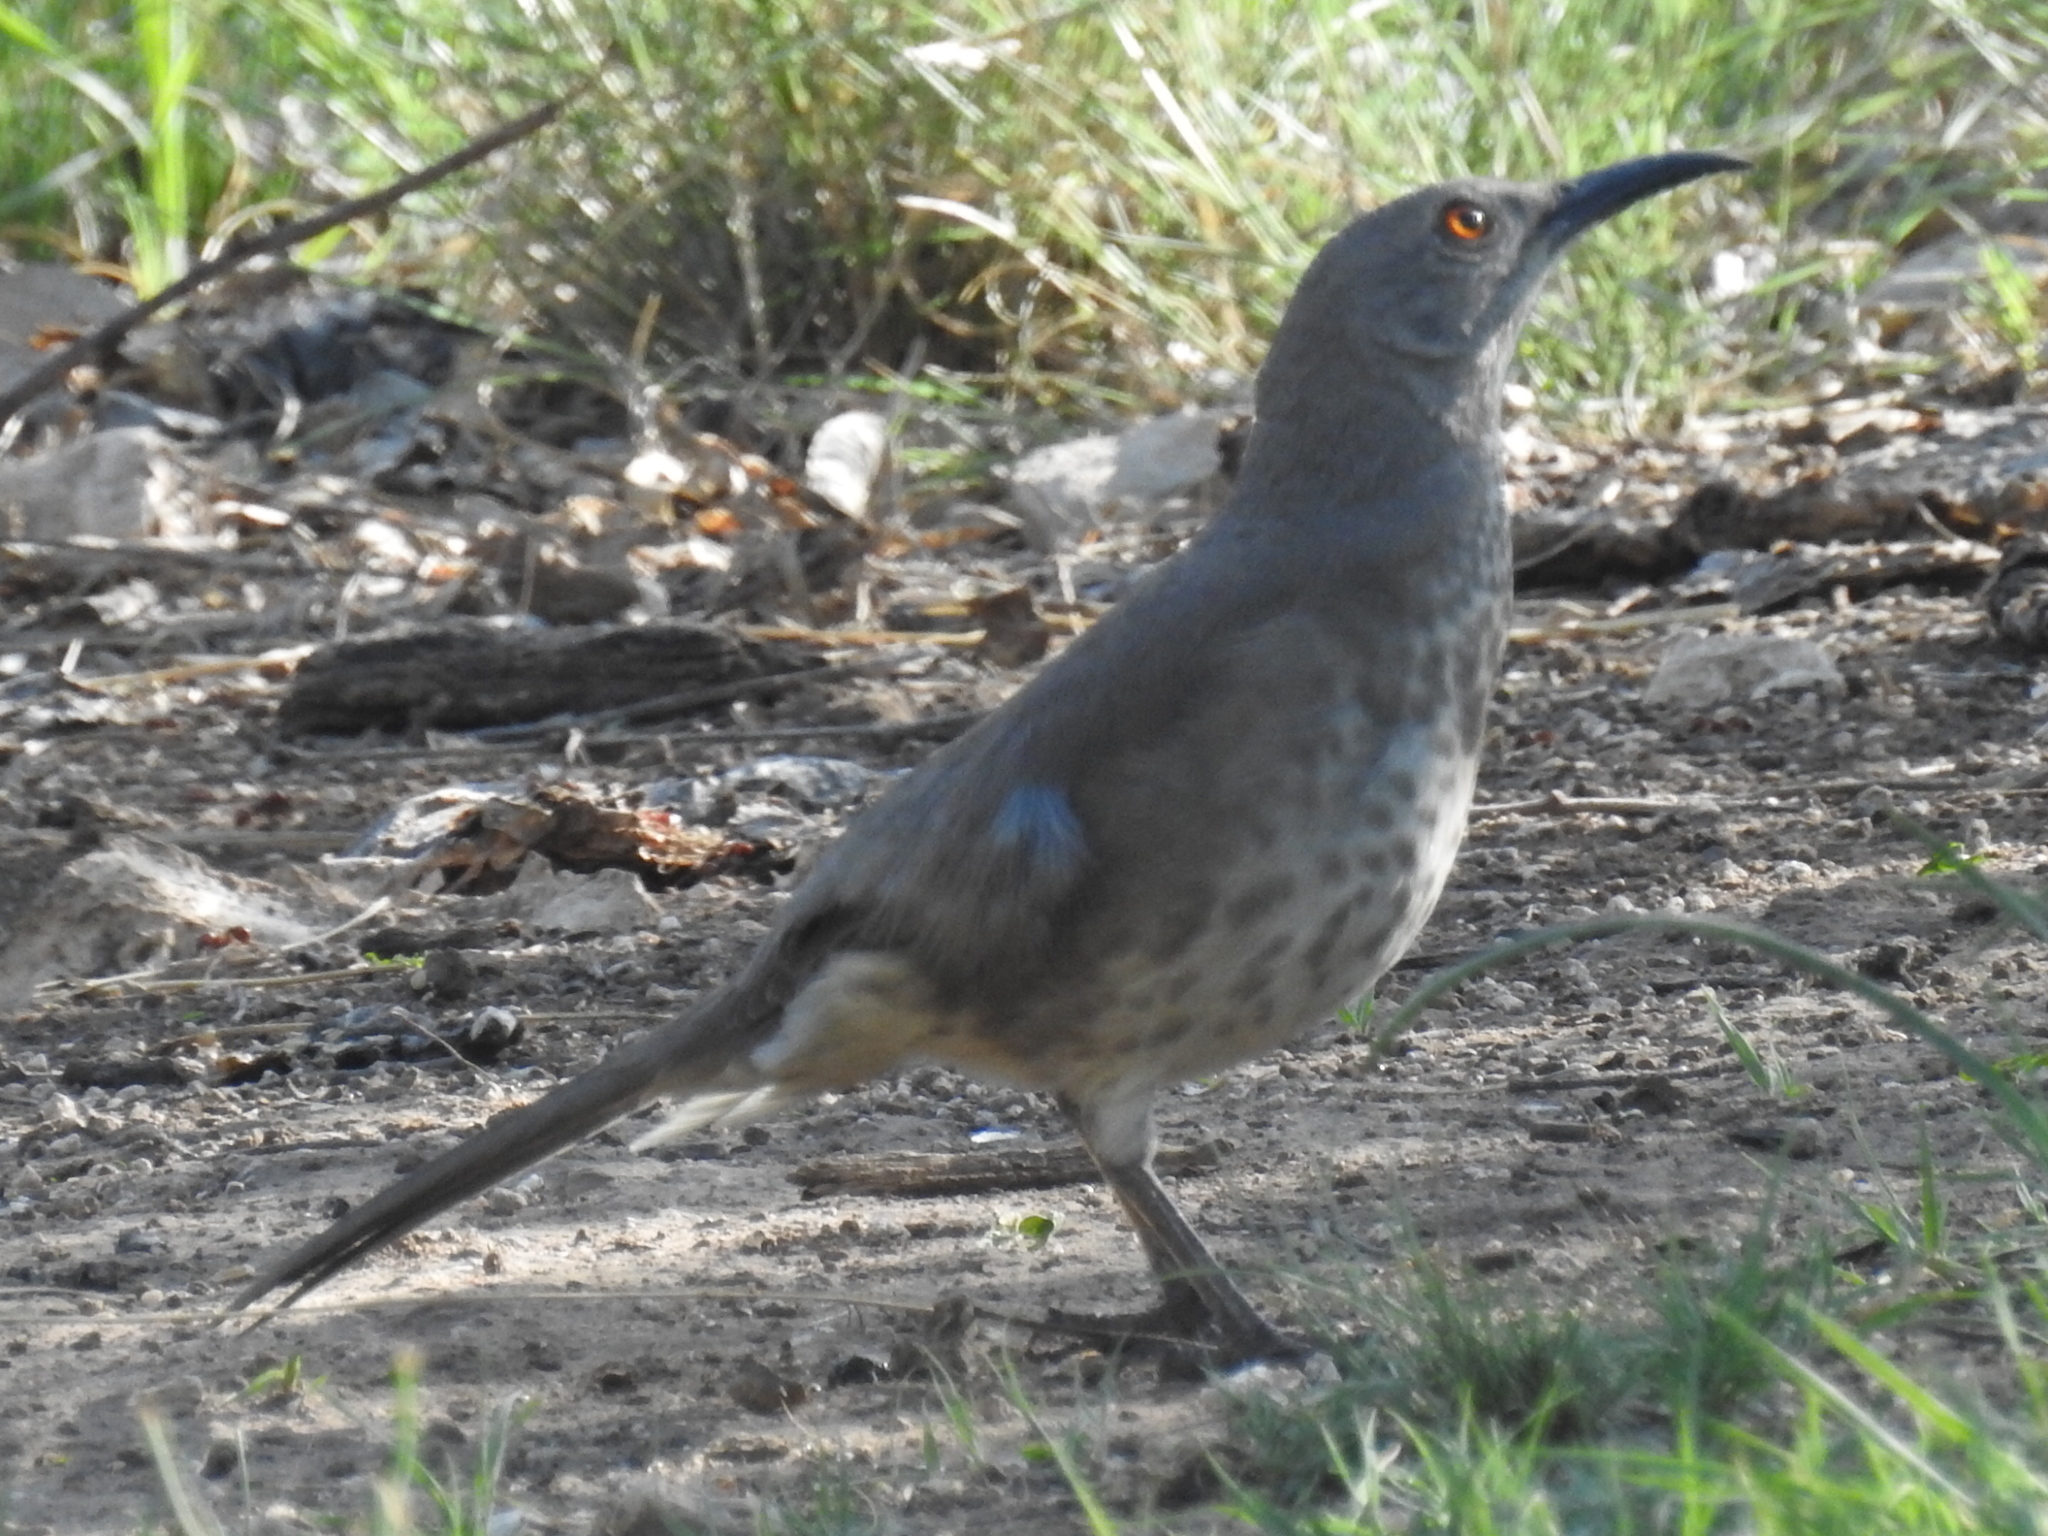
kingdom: Animalia
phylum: Chordata
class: Aves
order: Passeriformes
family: Mimidae
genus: Toxostoma
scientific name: Toxostoma curvirostre
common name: Curve-billed thrasher
